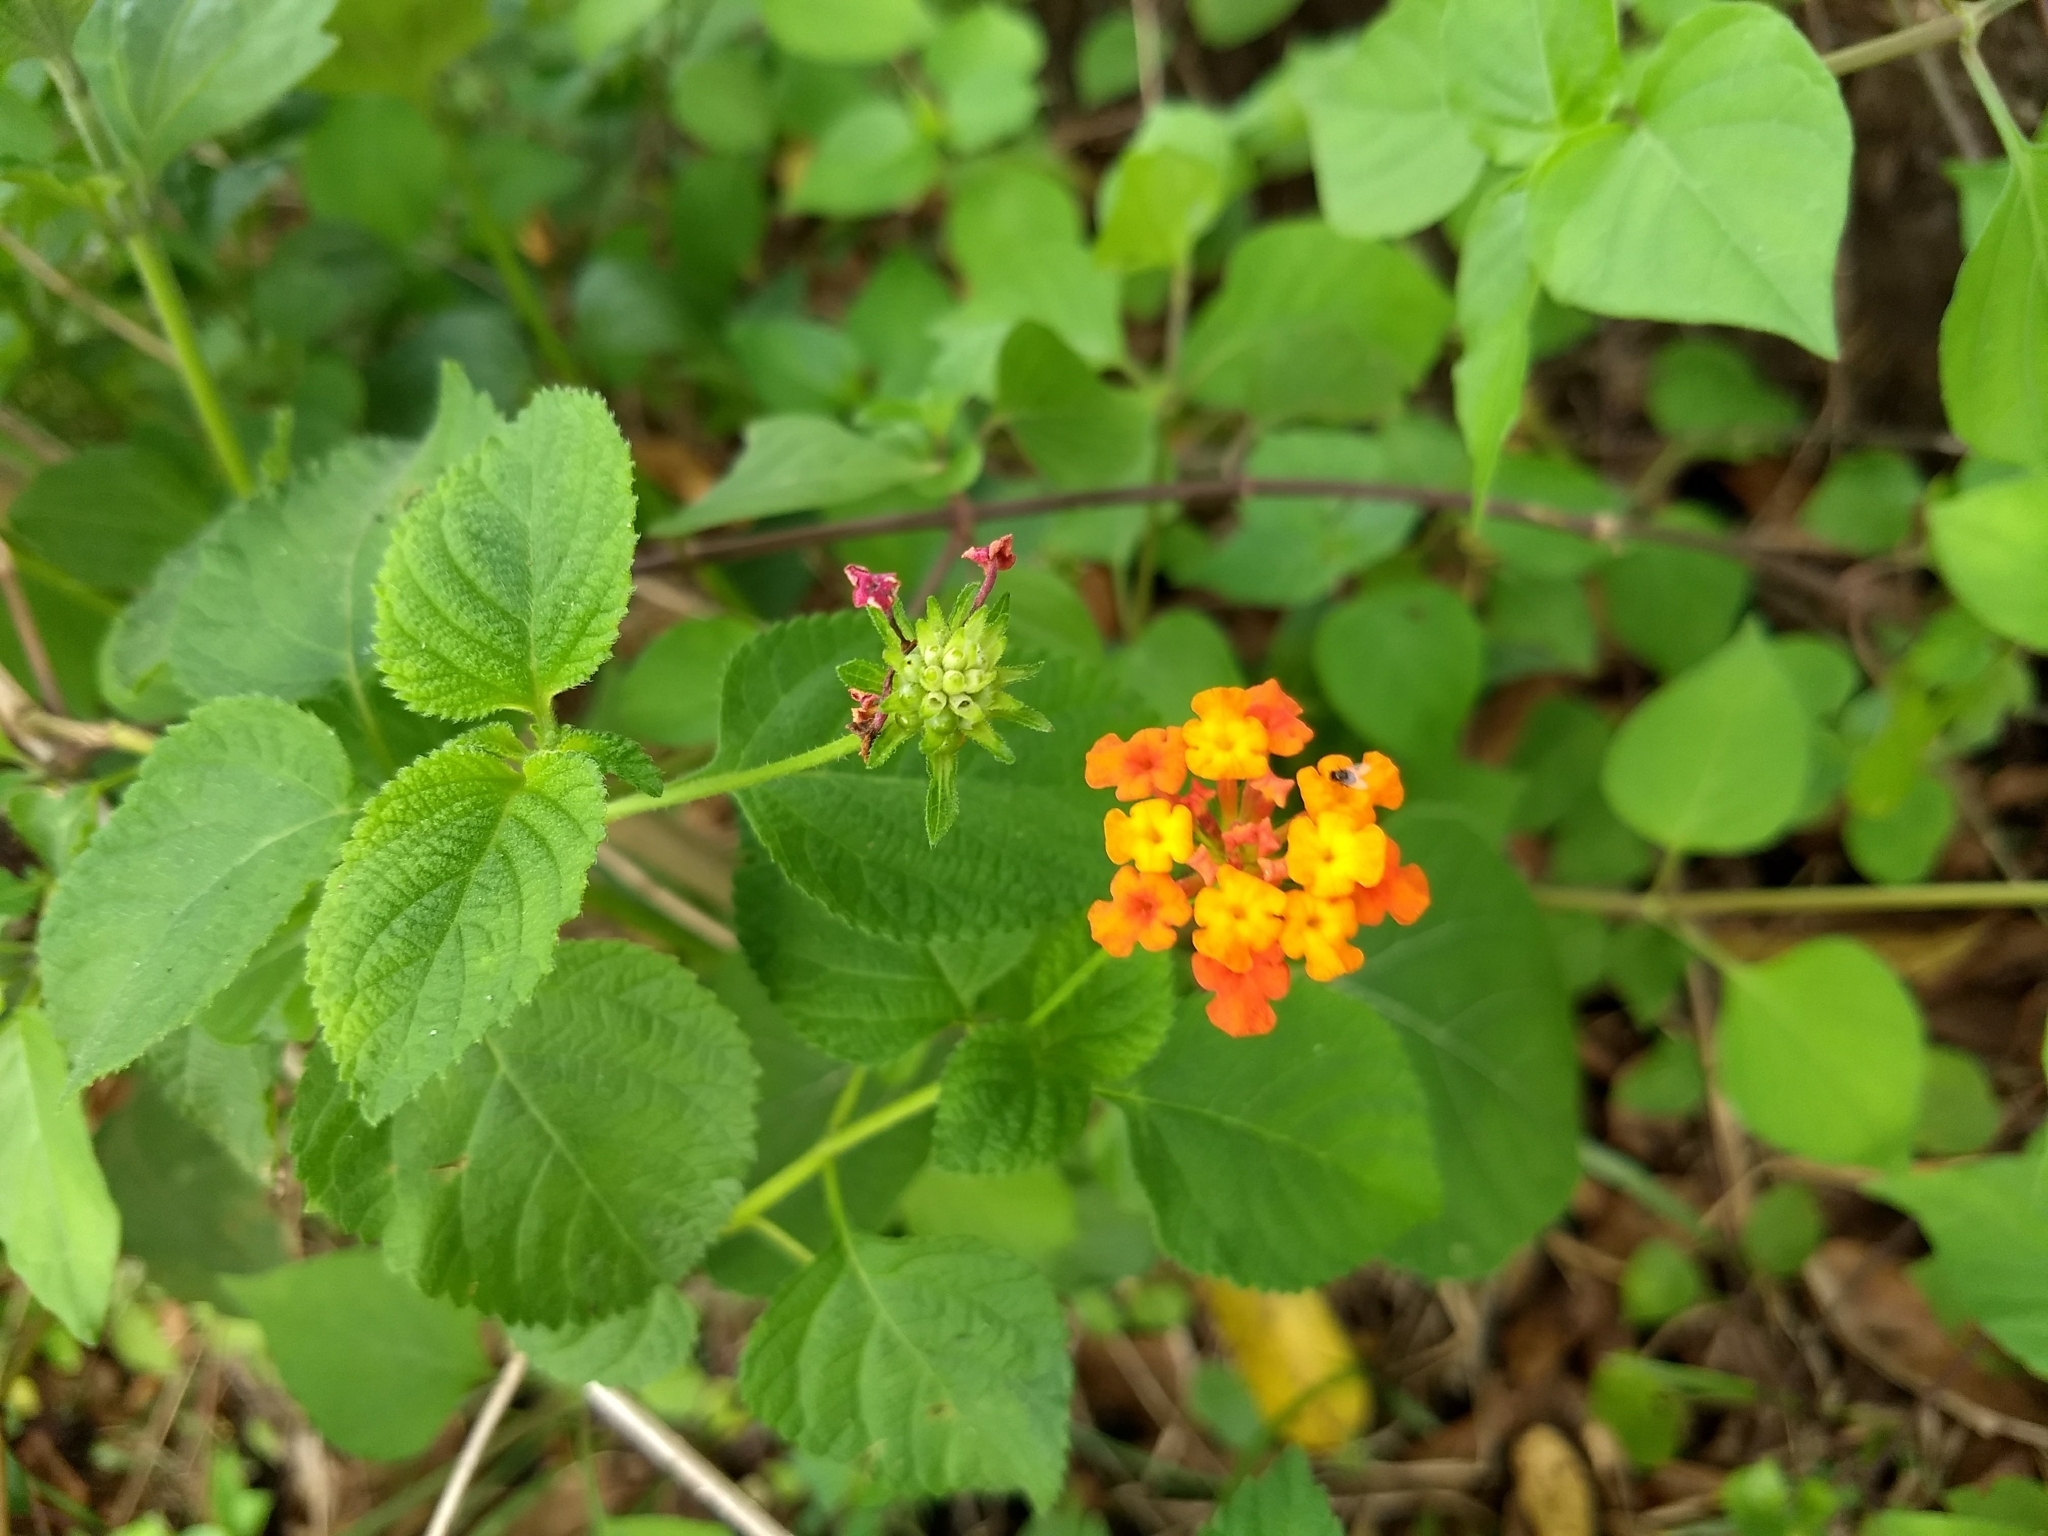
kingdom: Plantae
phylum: Tracheophyta
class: Magnoliopsida
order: Lamiales
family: Verbenaceae
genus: Lantana
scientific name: Lantana camara
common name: Lantana
